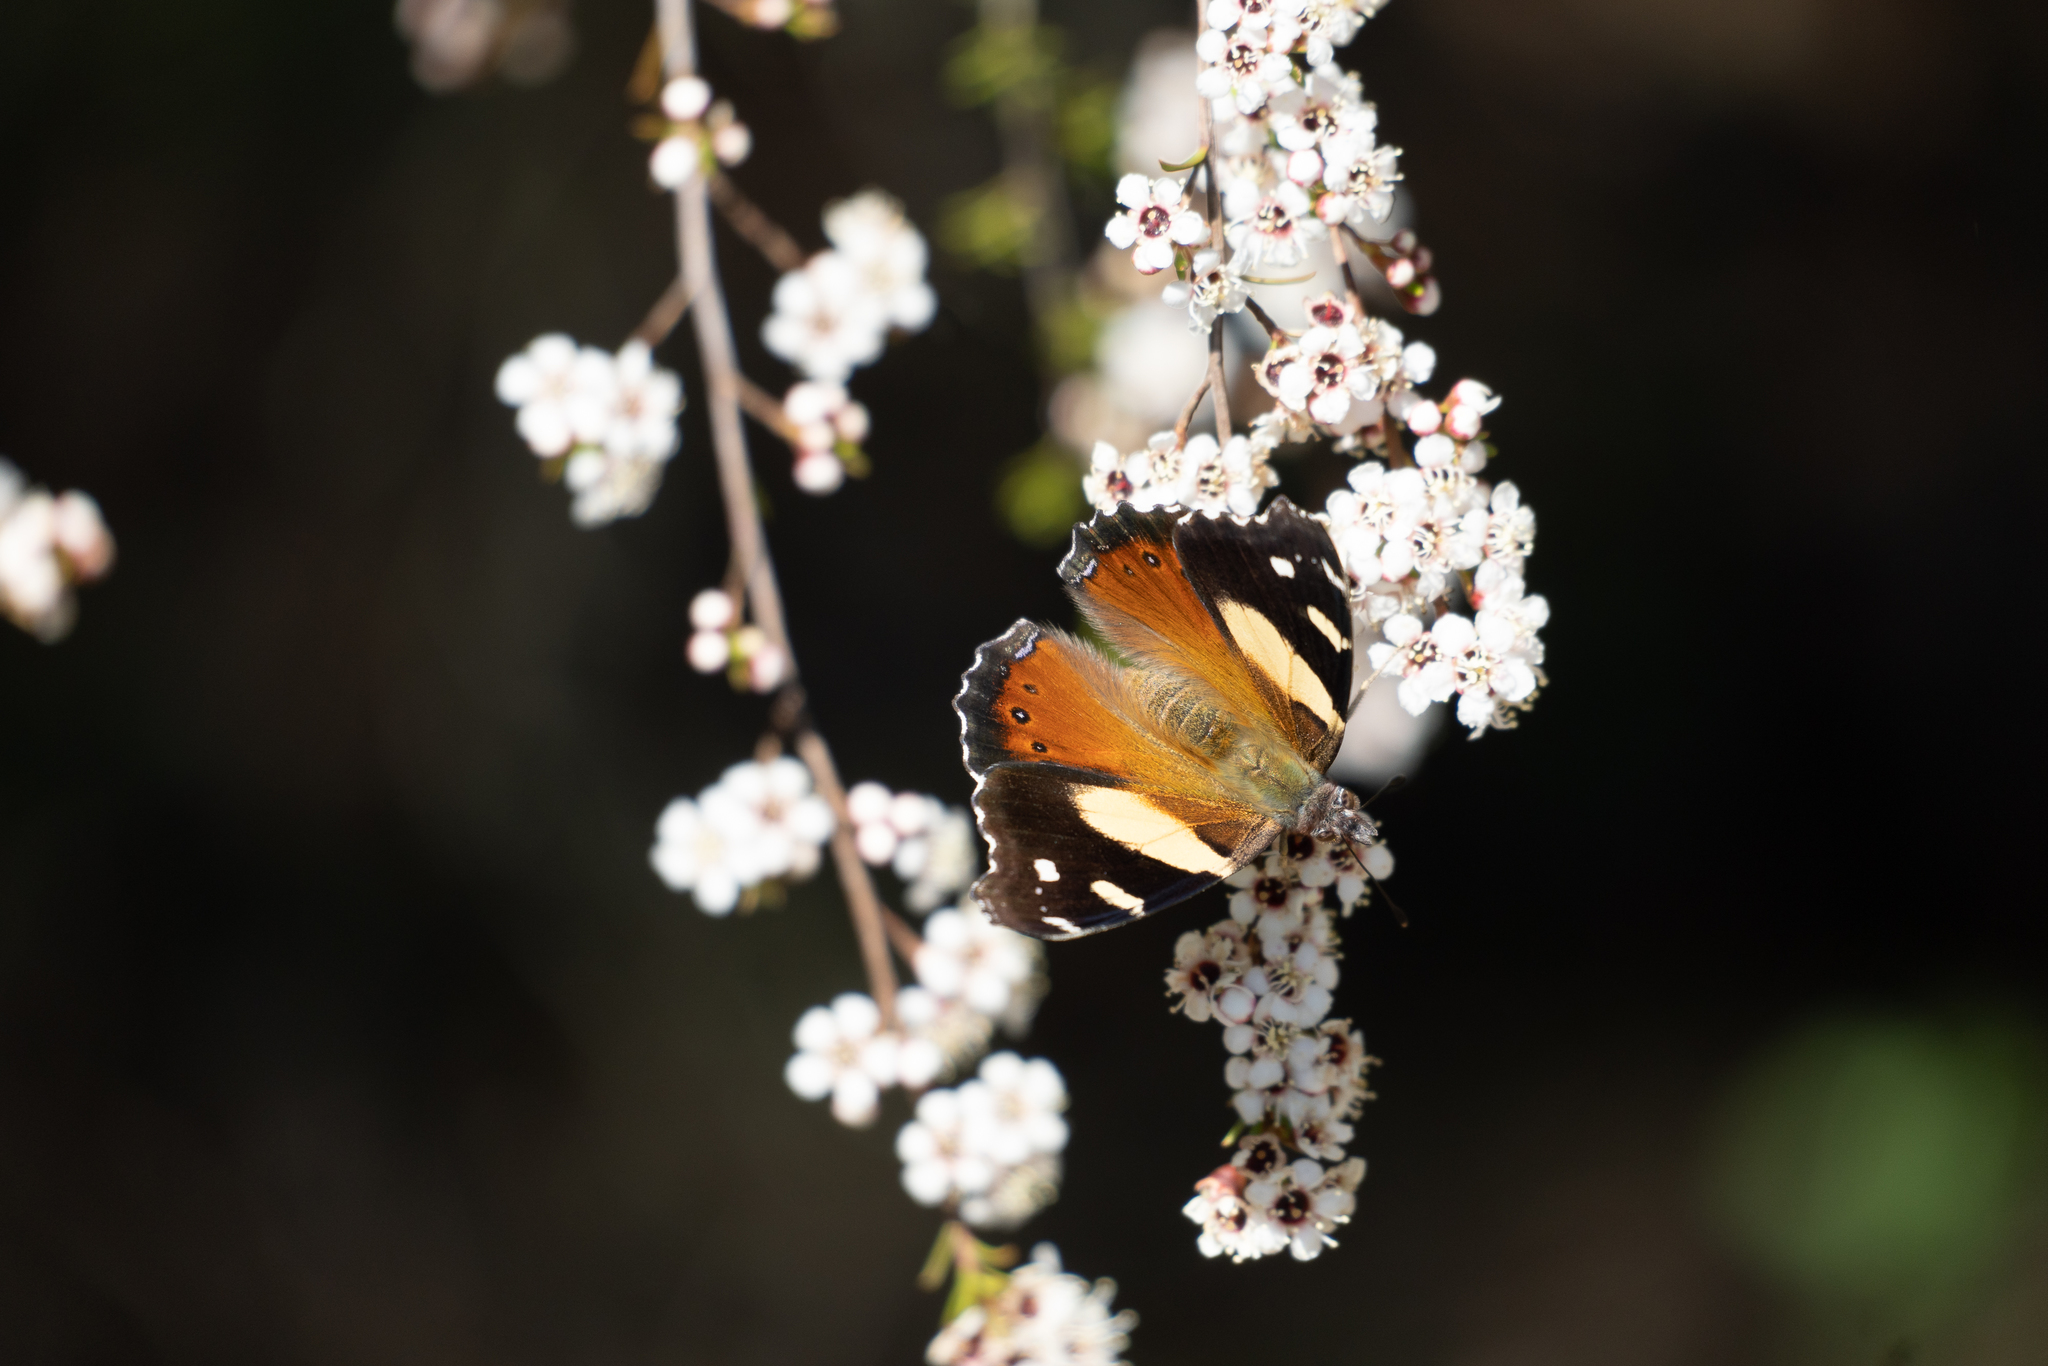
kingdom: Animalia
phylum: Arthropoda
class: Insecta
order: Lepidoptera
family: Nymphalidae
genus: Vanessa
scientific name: Vanessa itea
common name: Yellow admiral
